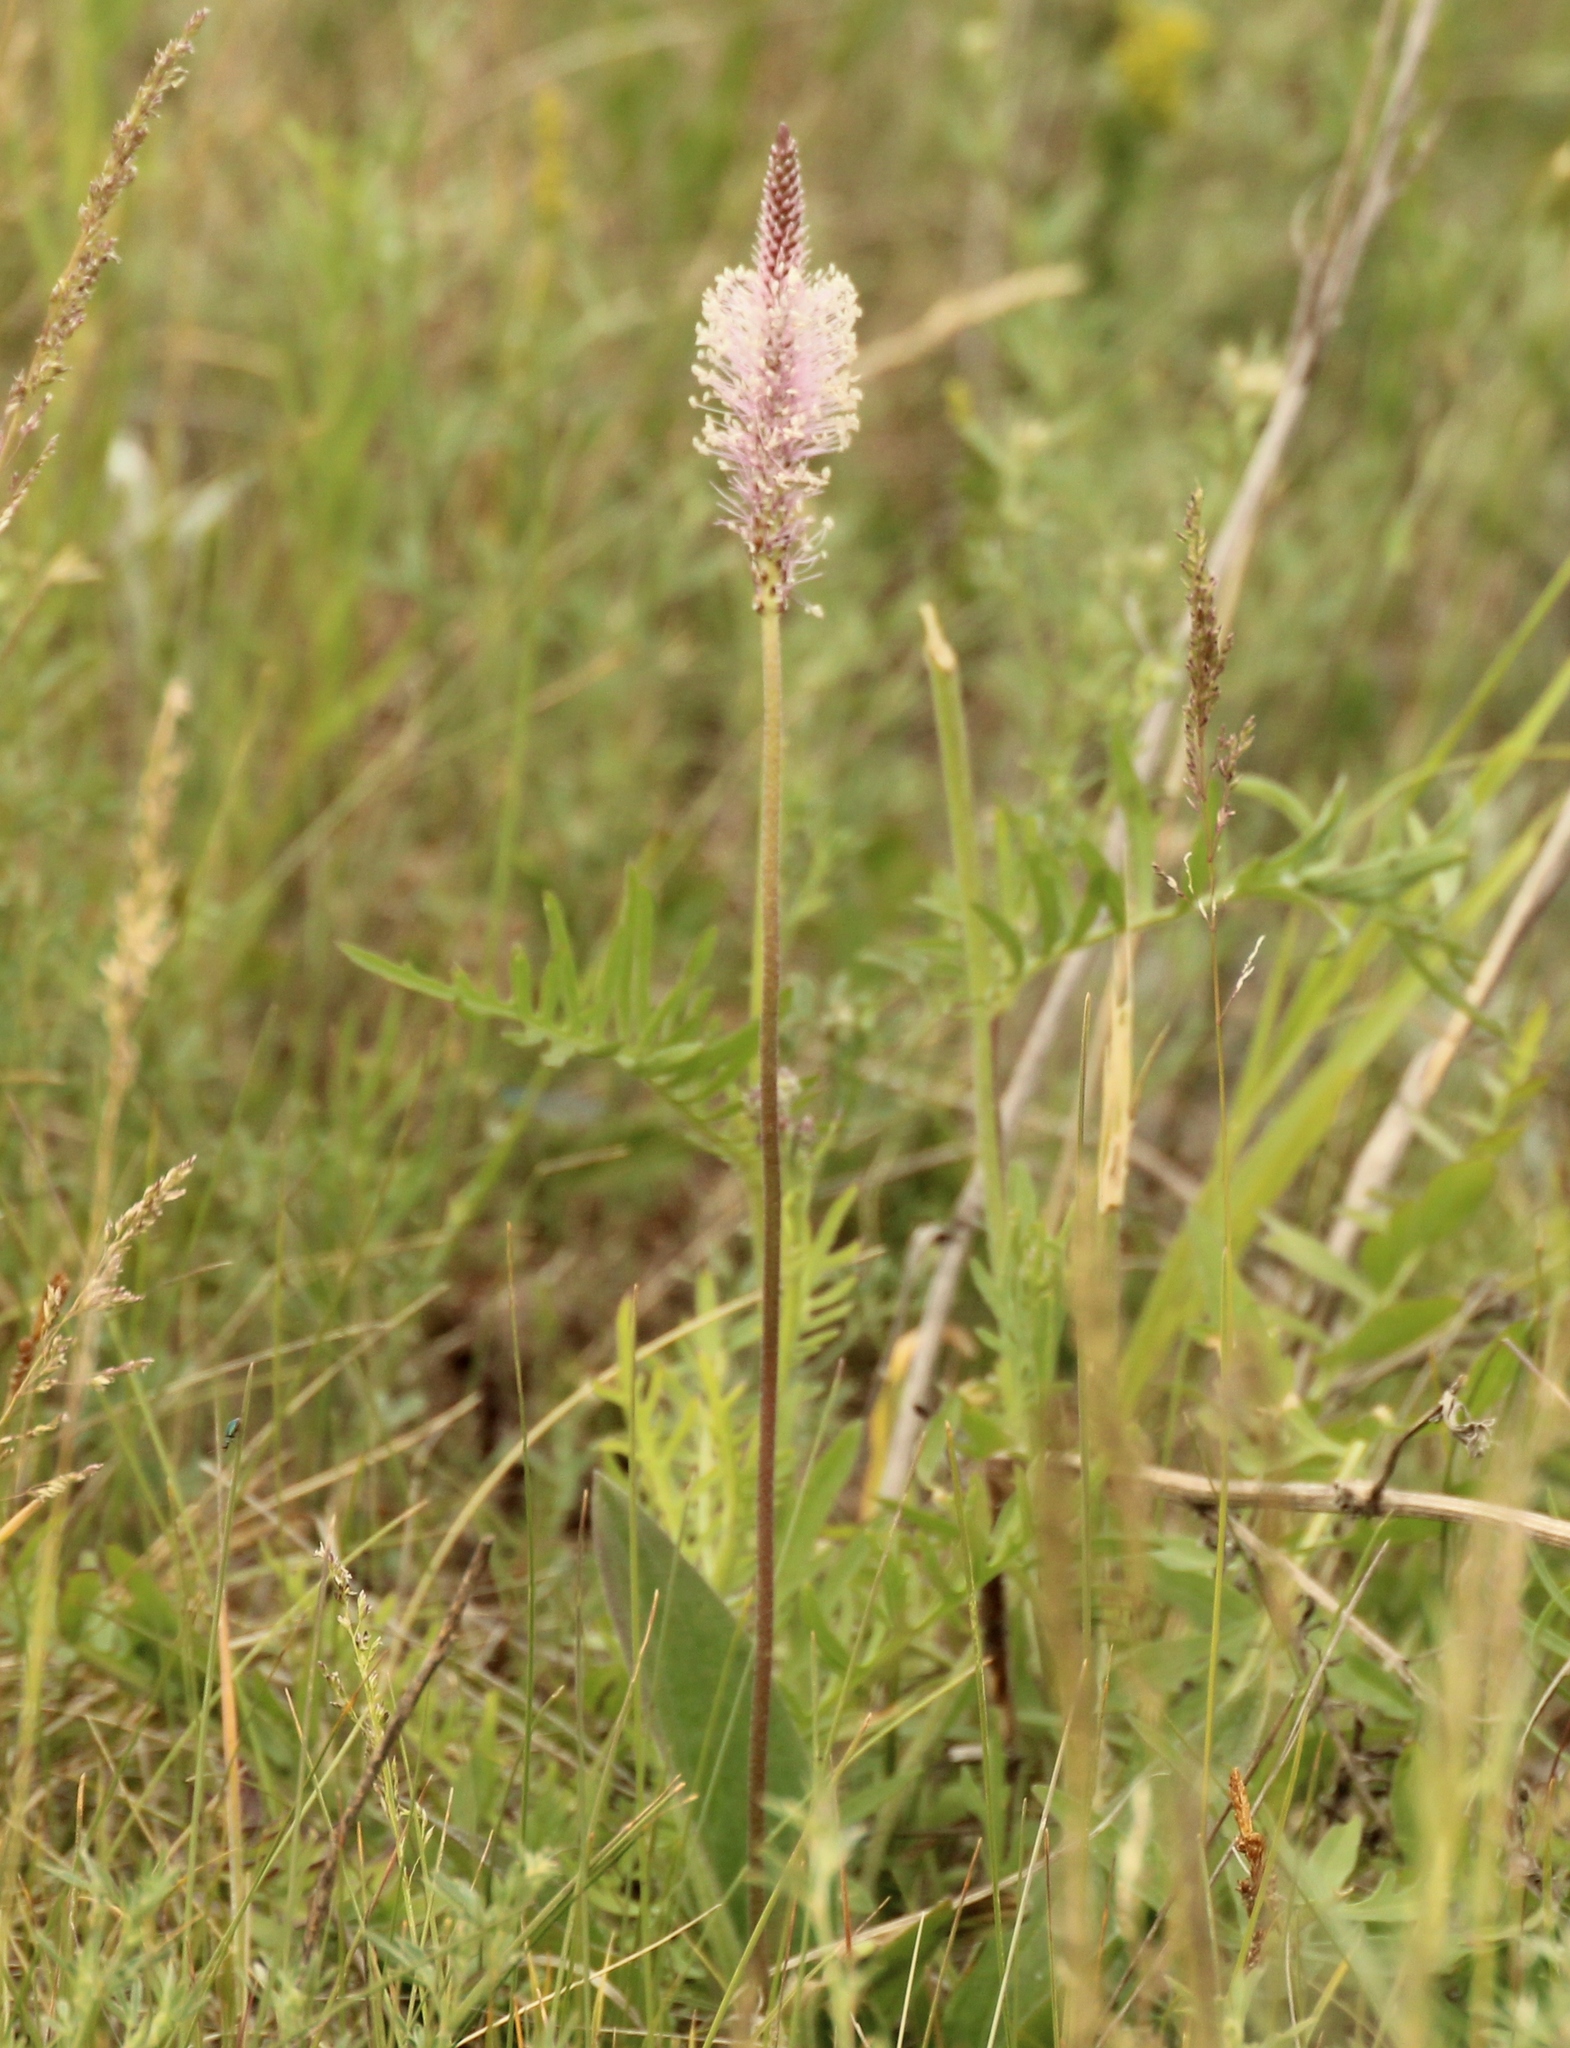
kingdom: Plantae
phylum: Tracheophyta
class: Magnoliopsida
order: Lamiales
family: Plantaginaceae
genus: Plantago
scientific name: Plantago media
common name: Hoary plantain
